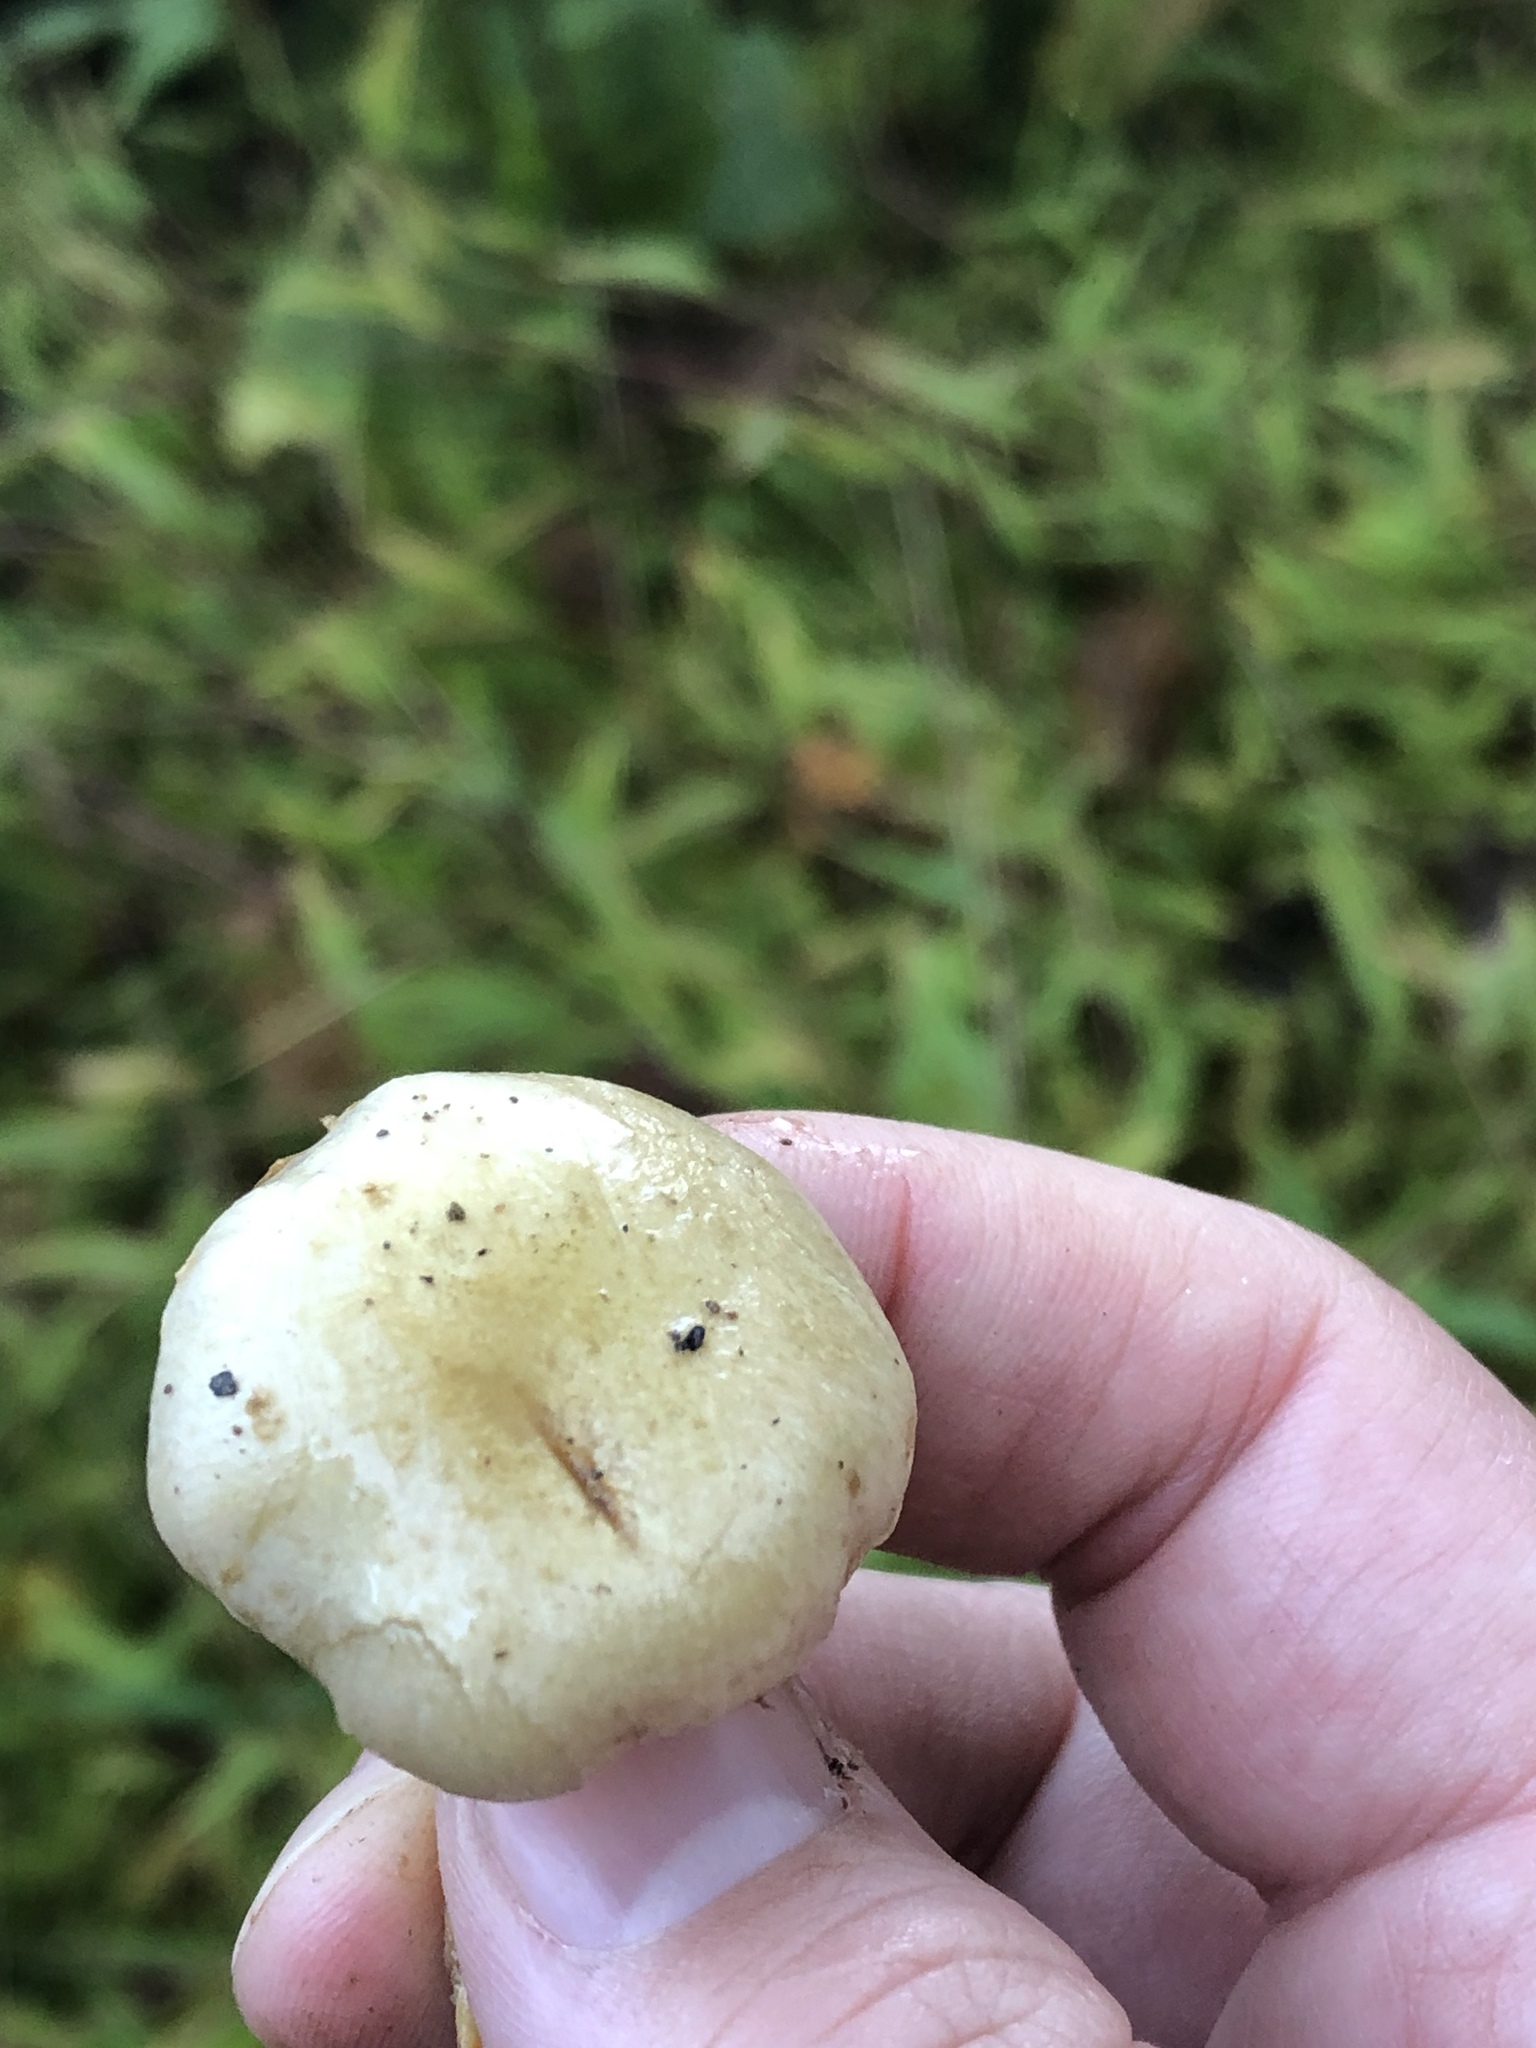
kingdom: Fungi
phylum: Basidiomycota
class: Agaricomycetes
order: Agaricales
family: Hymenogastraceae
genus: Flammula
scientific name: Flammula alnicola
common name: Alder scalycap
